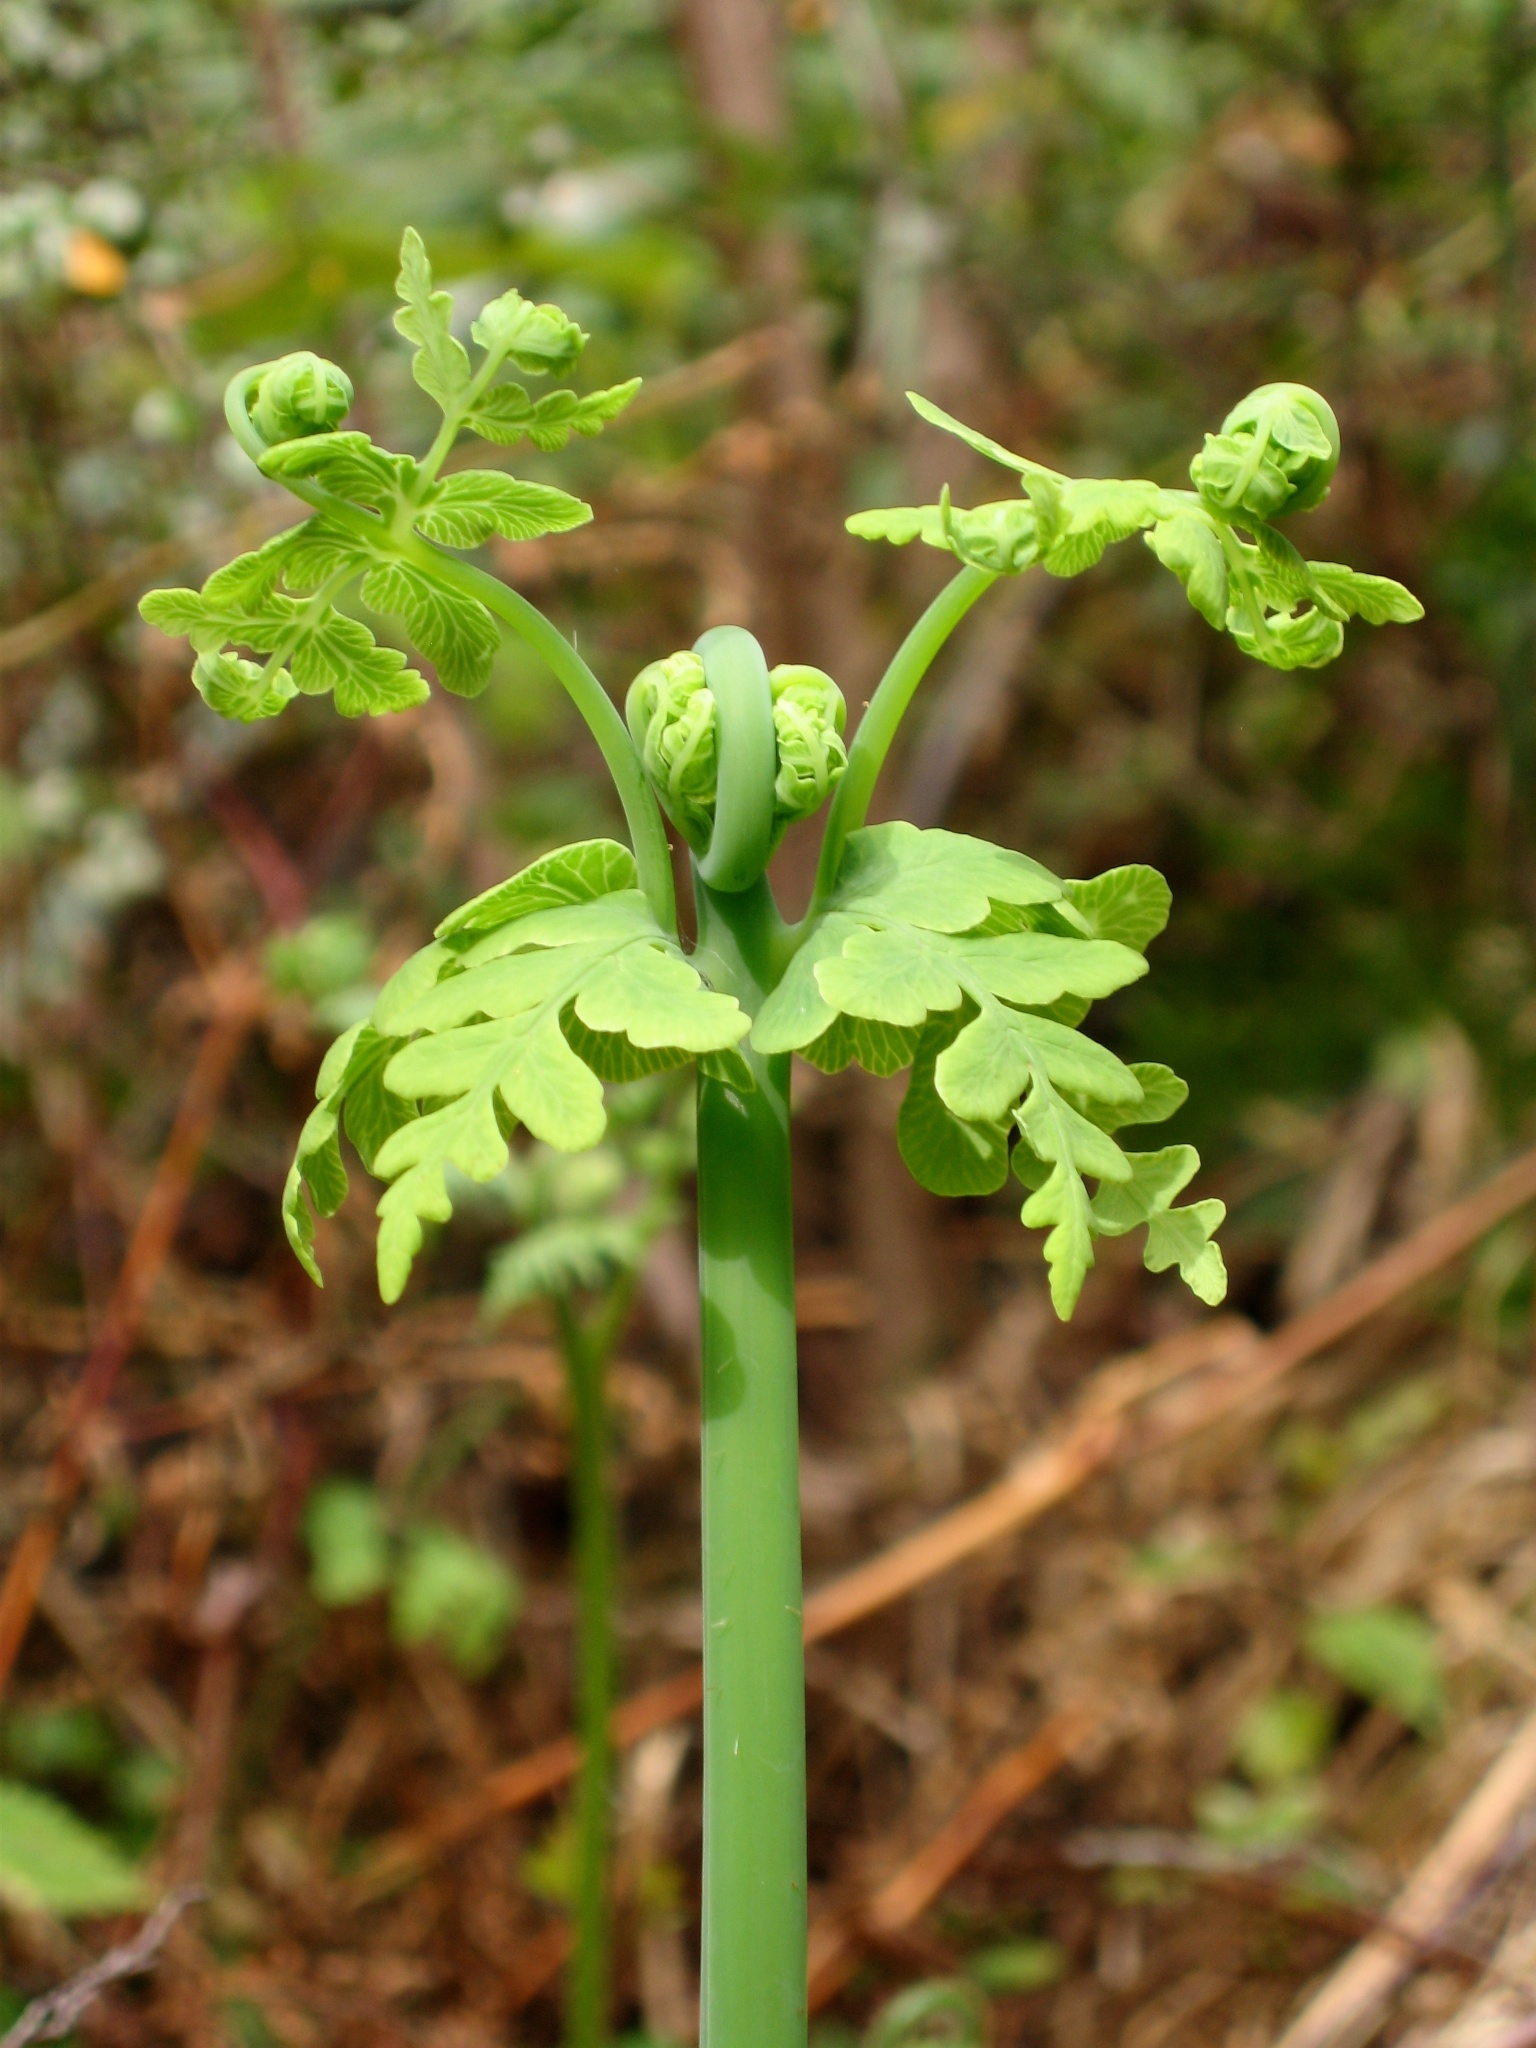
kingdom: Plantae
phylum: Tracheophyta
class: Polypodiopsida
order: Polypodiales
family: Dennstaedtiaceae
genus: Histiopteris
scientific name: Histiopteris incisa
